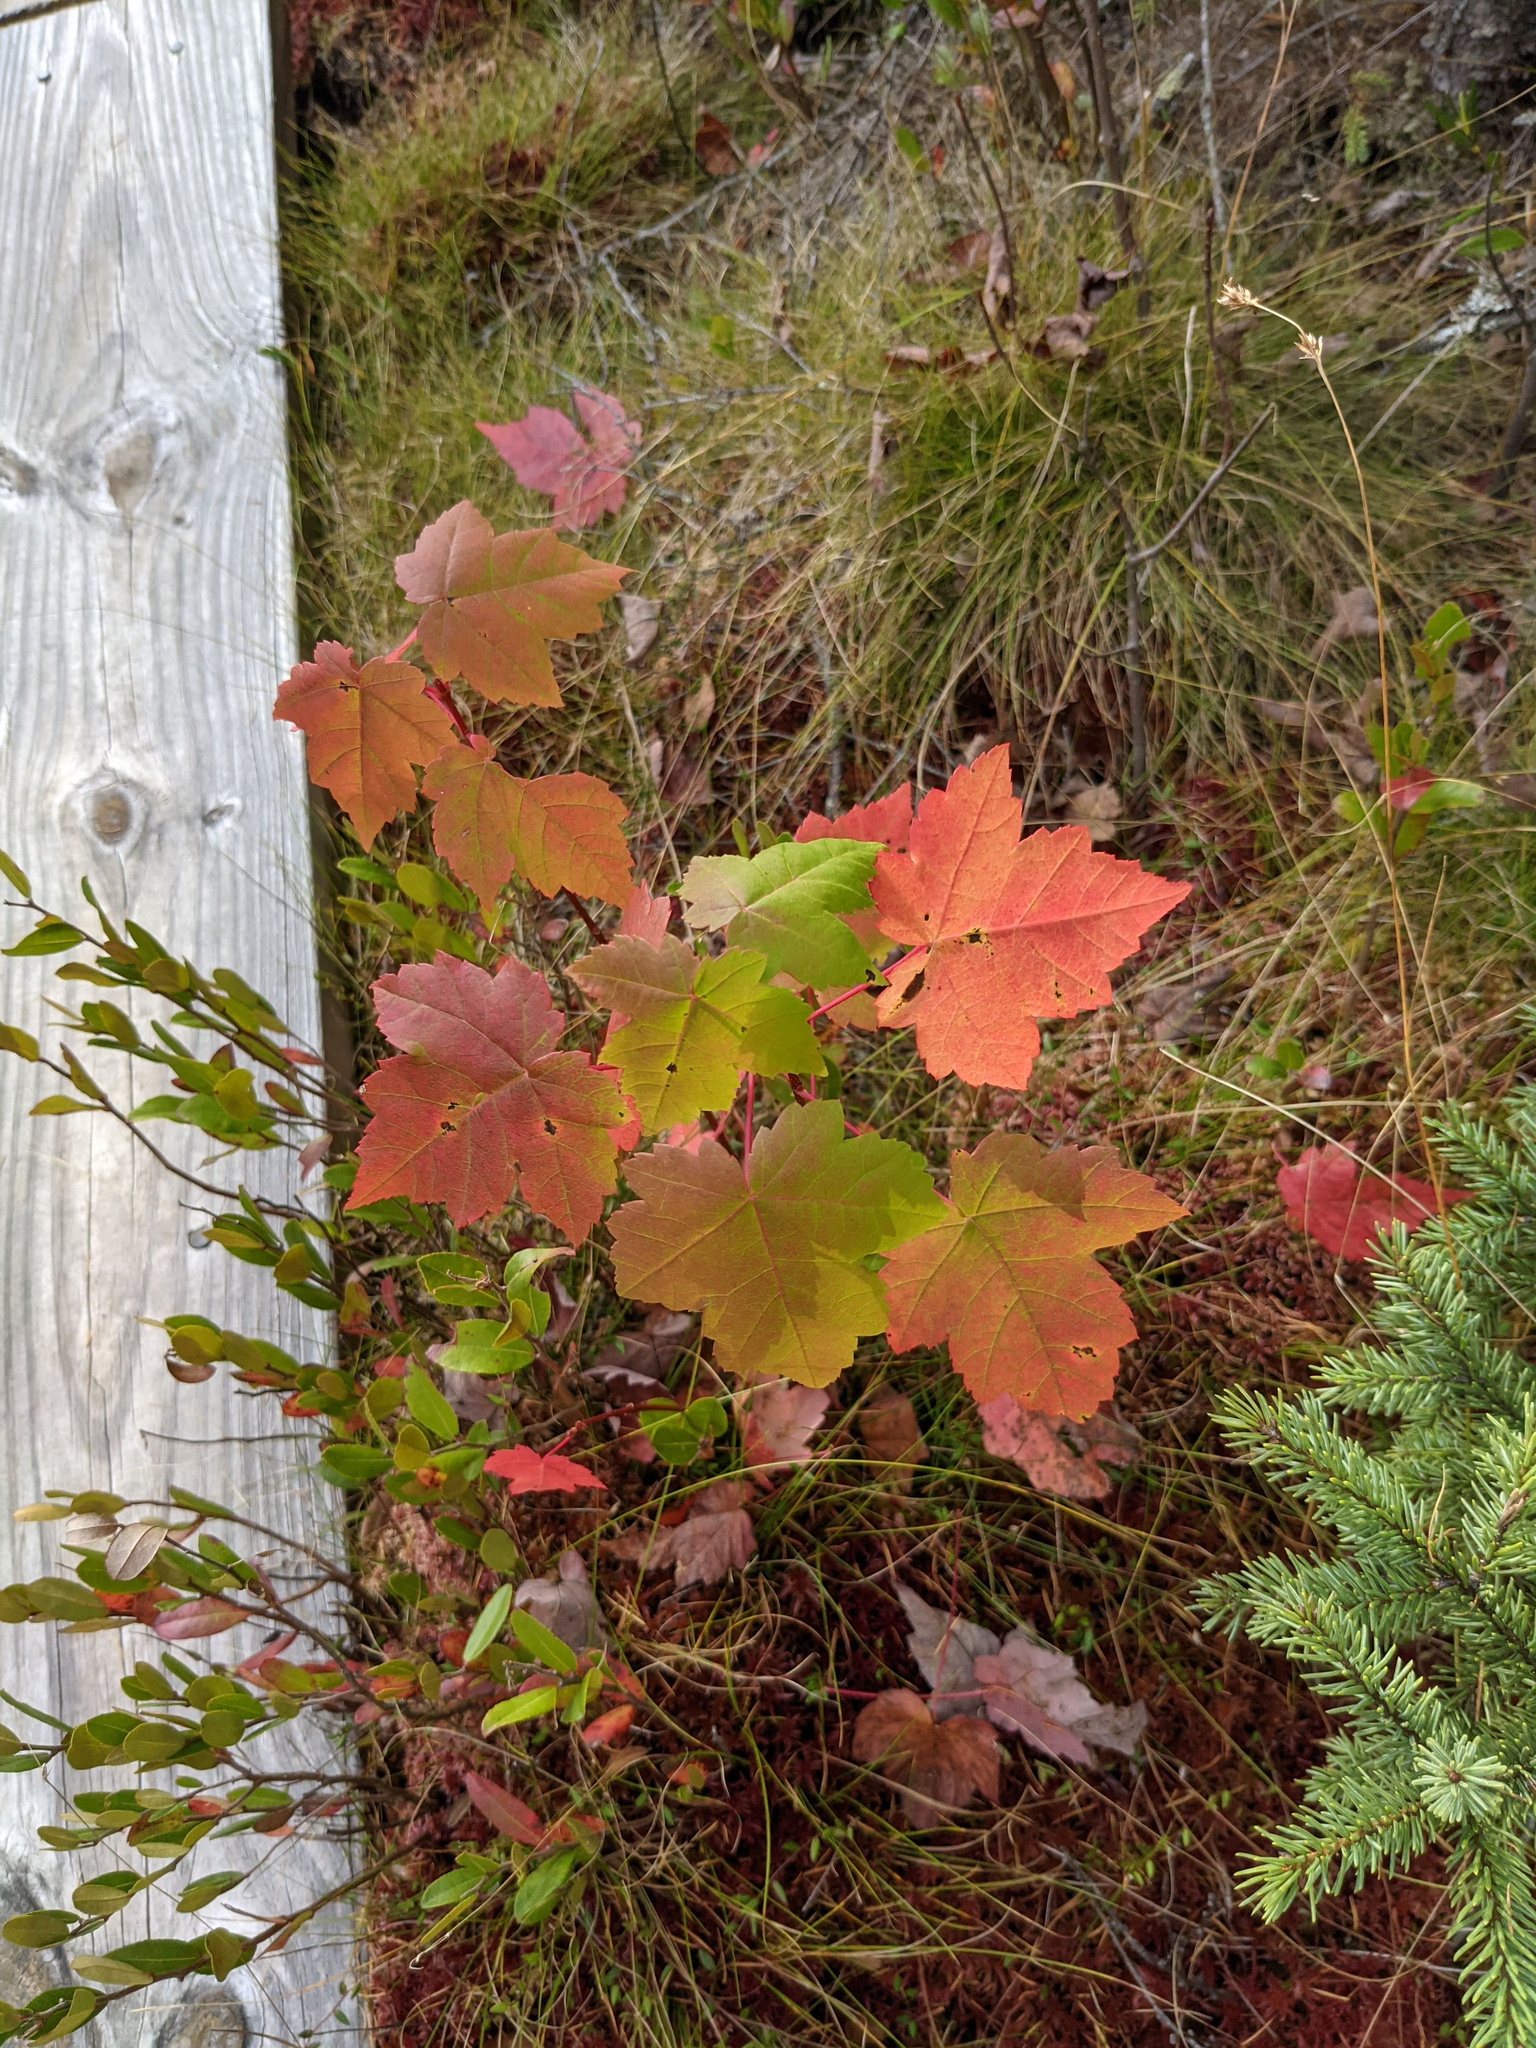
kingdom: Plantae
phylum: Tracheophyta
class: Magnoliopsida
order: Sapindales
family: Sapindaceae
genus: Acer
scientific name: Acer rubrum
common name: Red maple
